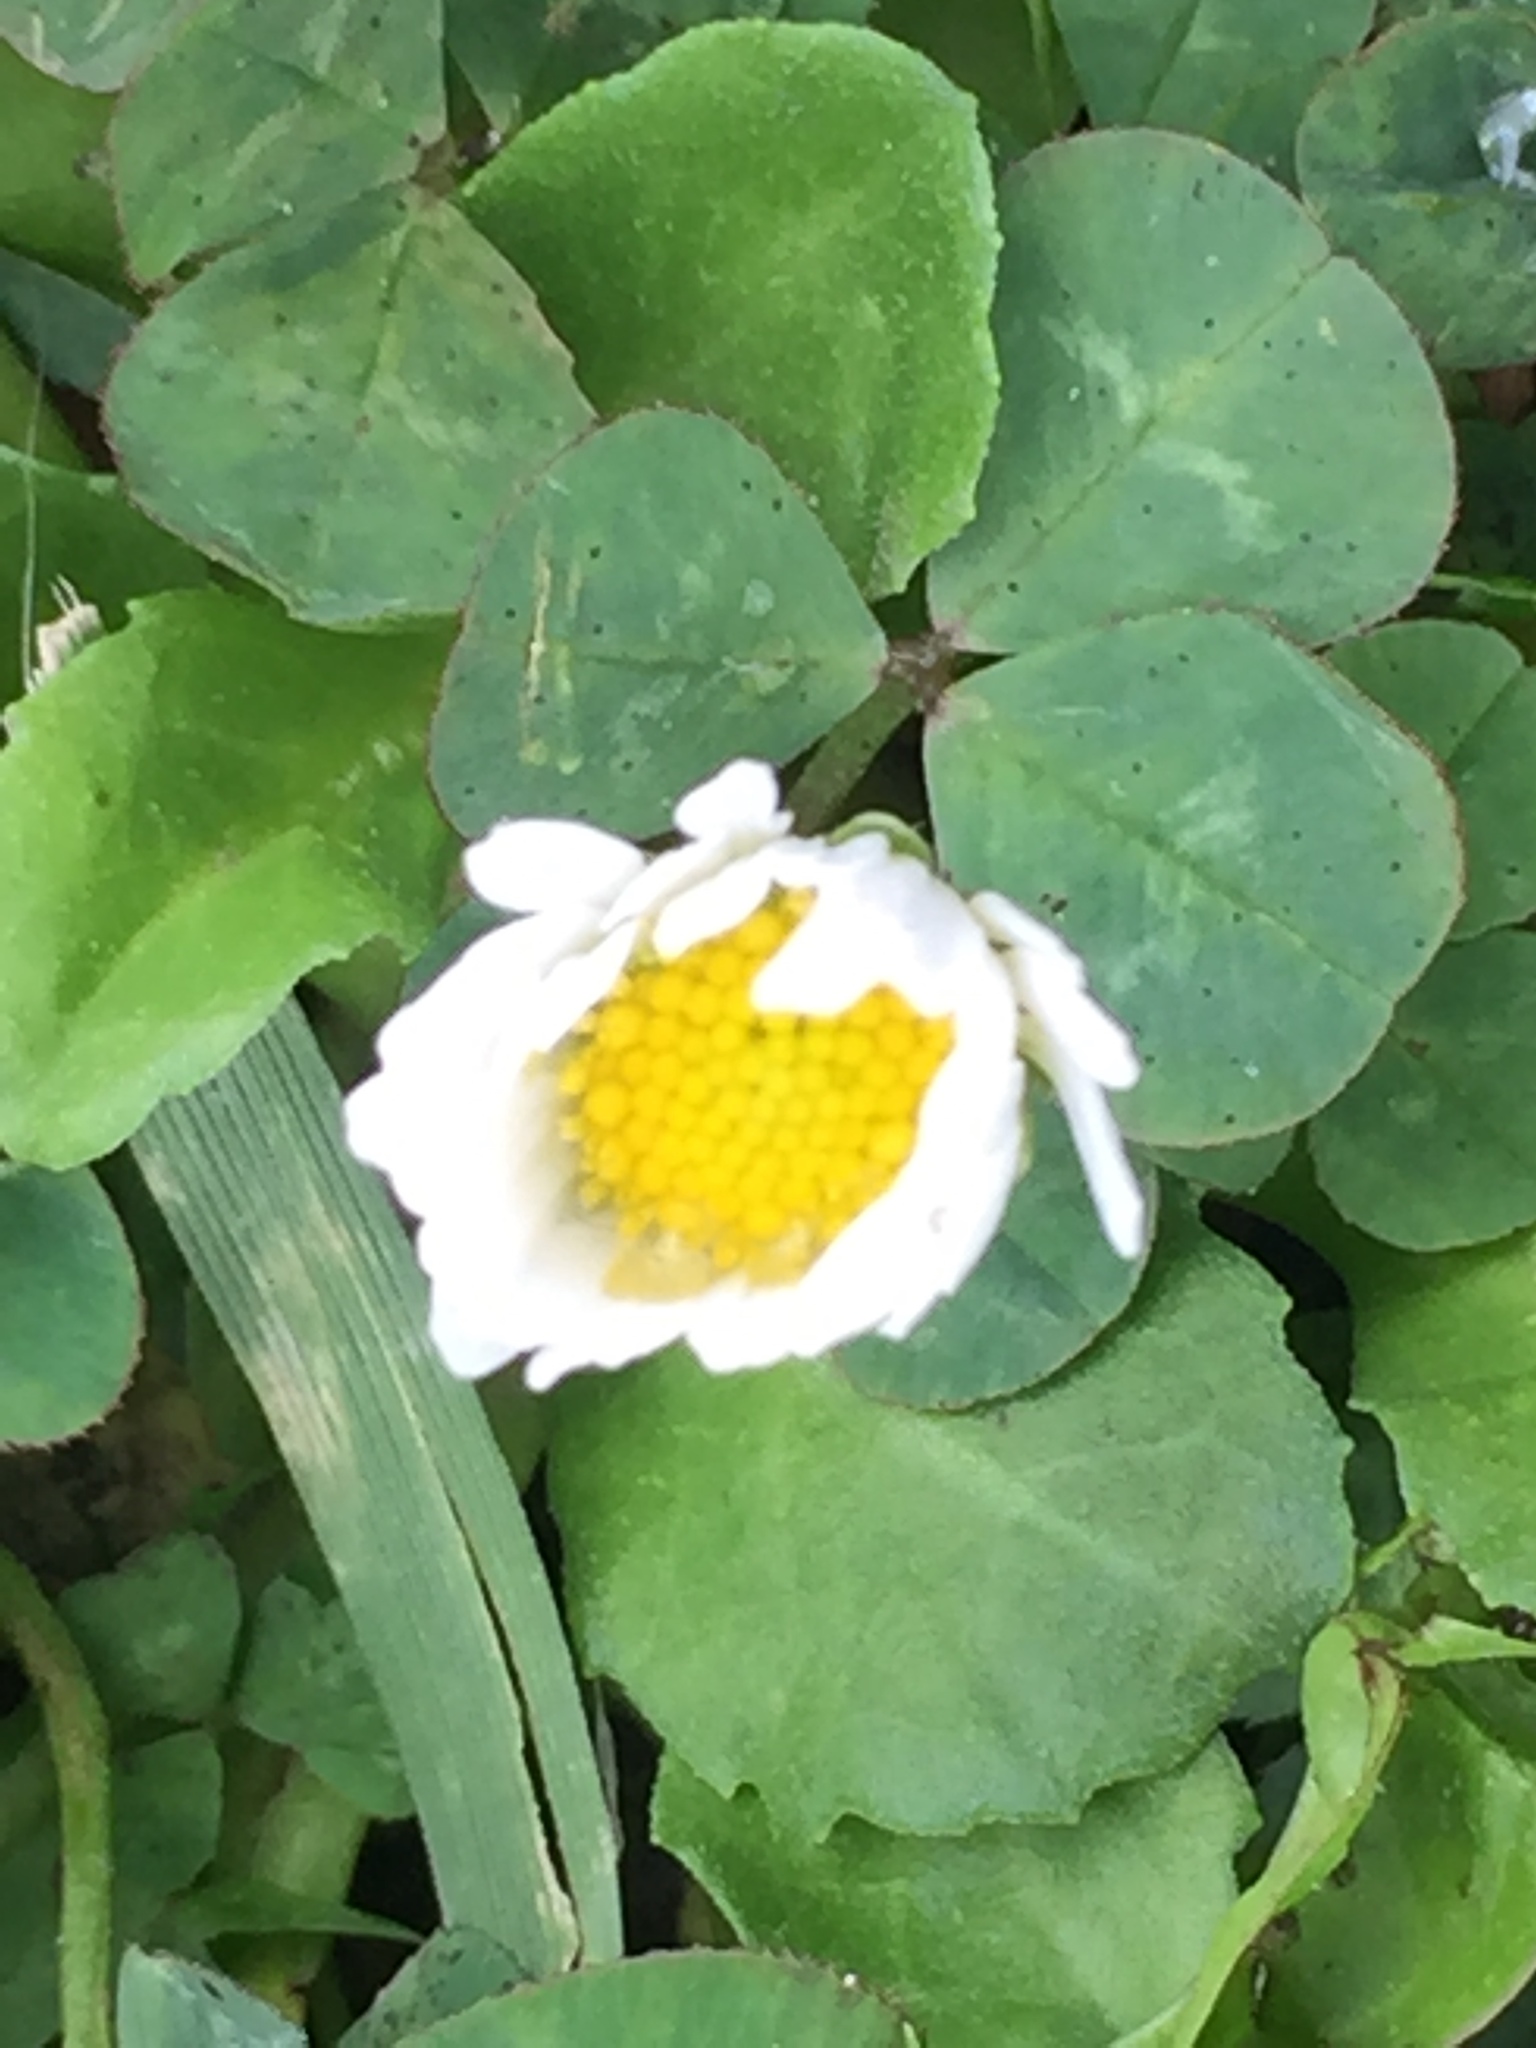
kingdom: Plantae
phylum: Tracheophyta
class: Magnoliopsida
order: Asterales
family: Asteraceae
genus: Bellis
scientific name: Bellis perennis
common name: Lawndaisy
